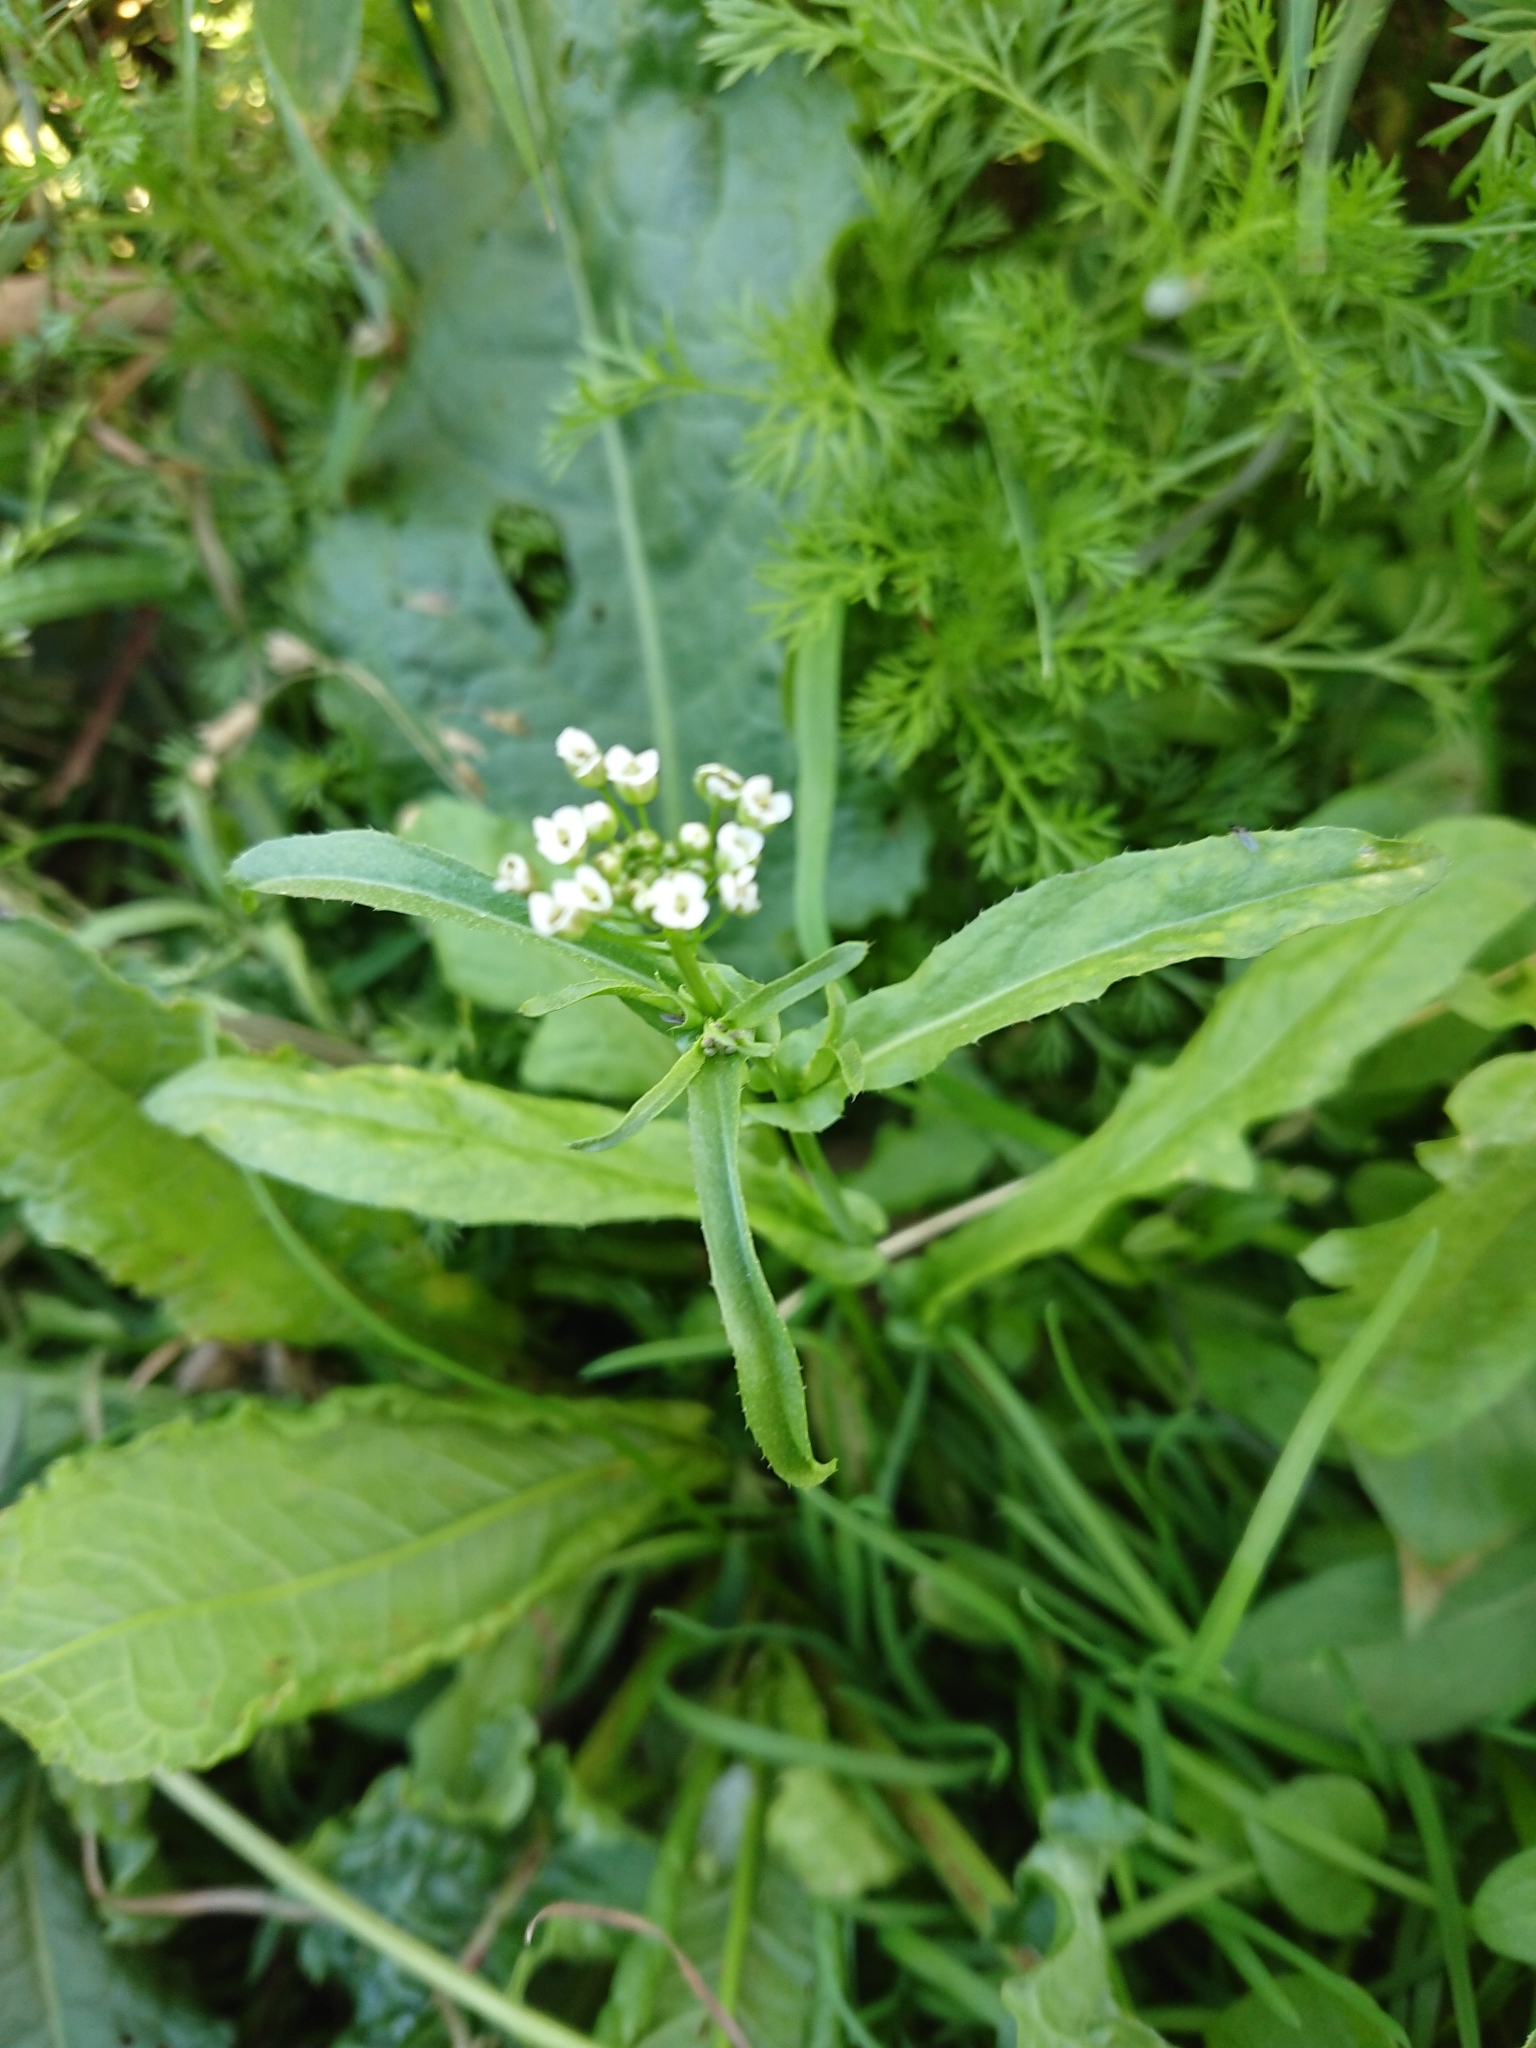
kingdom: Plantae
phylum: Tracheophyta
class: Magnoliopsida
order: Brassicales
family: Brassicaceae
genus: Capsella
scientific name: Capsella bursa-pastoris
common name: Shepherd's purse
